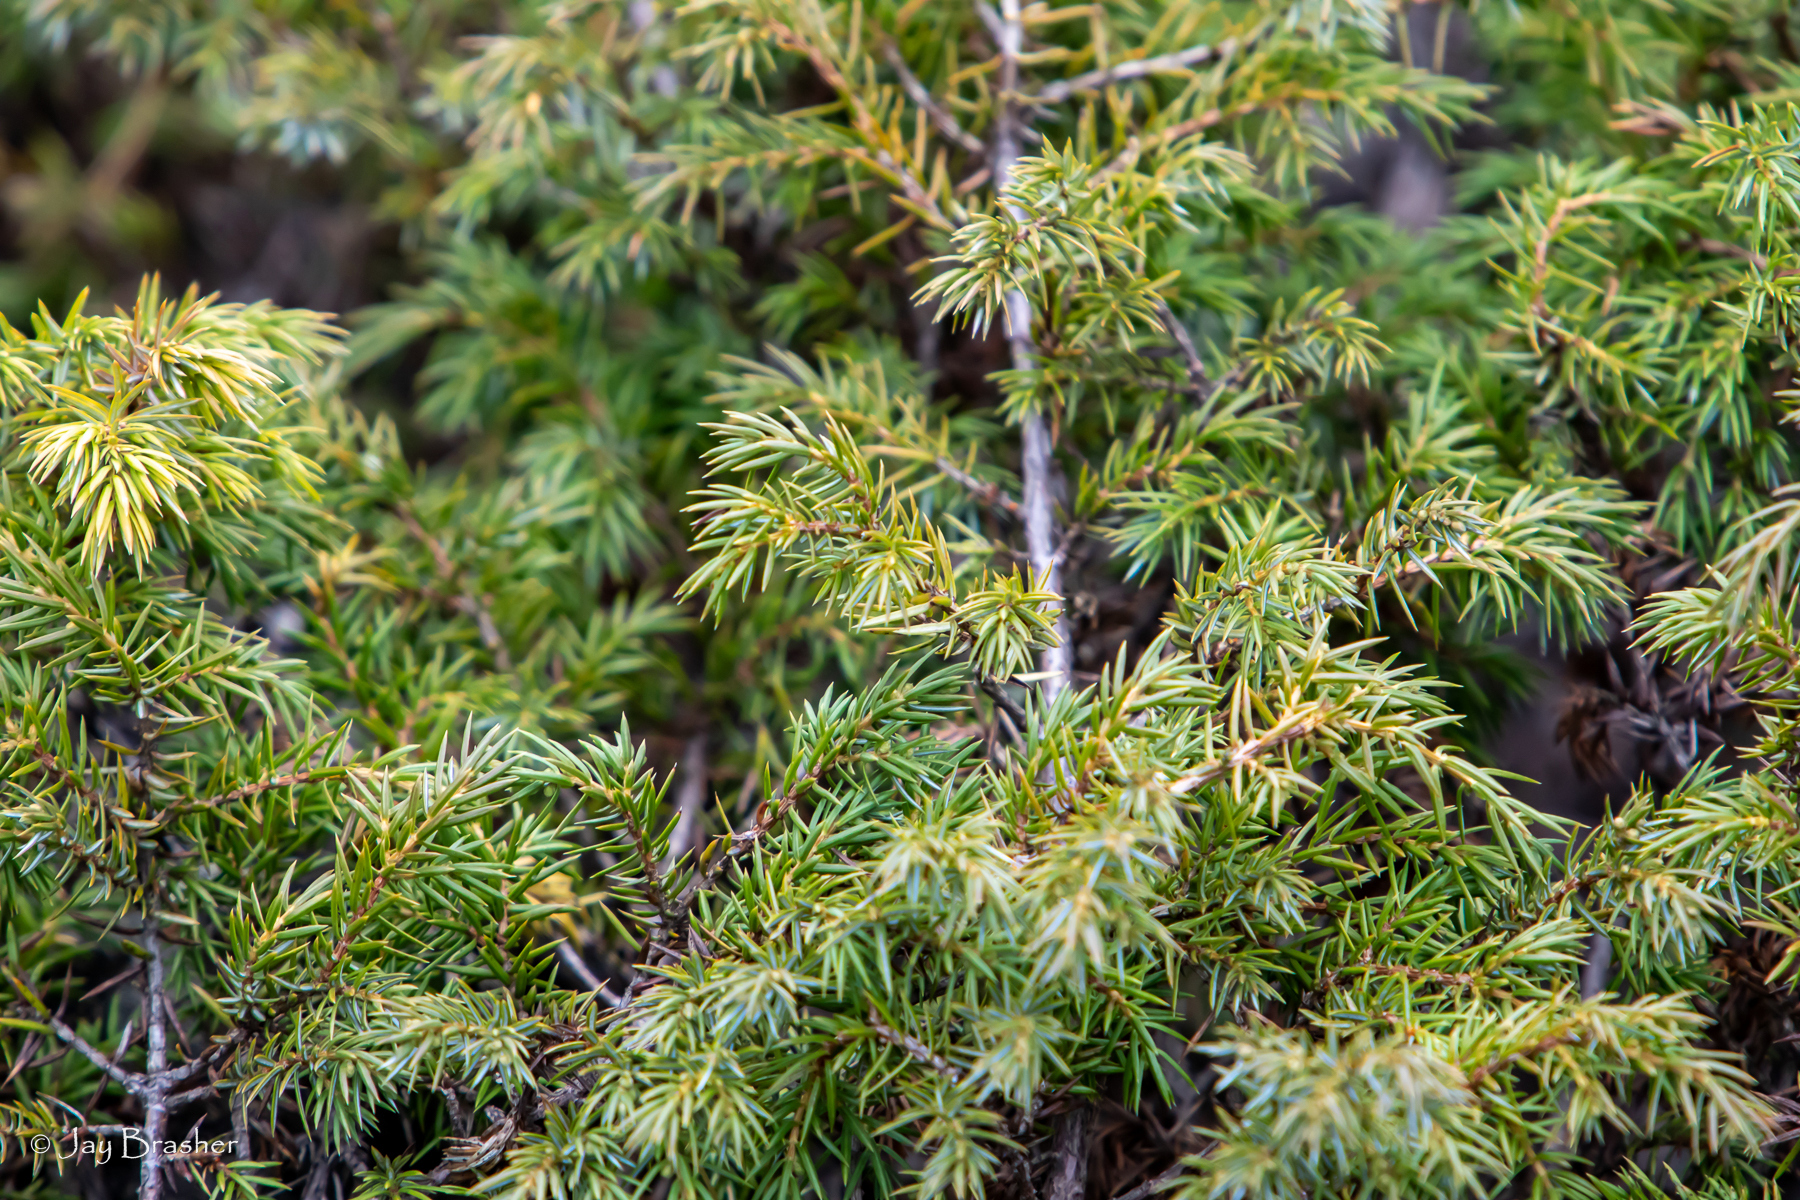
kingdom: Plantae
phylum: Tracheophyta
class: Pinopsida
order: Pinales
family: Cupressaceae
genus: Juniperus
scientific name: Juniperus communis
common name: Common juniper
